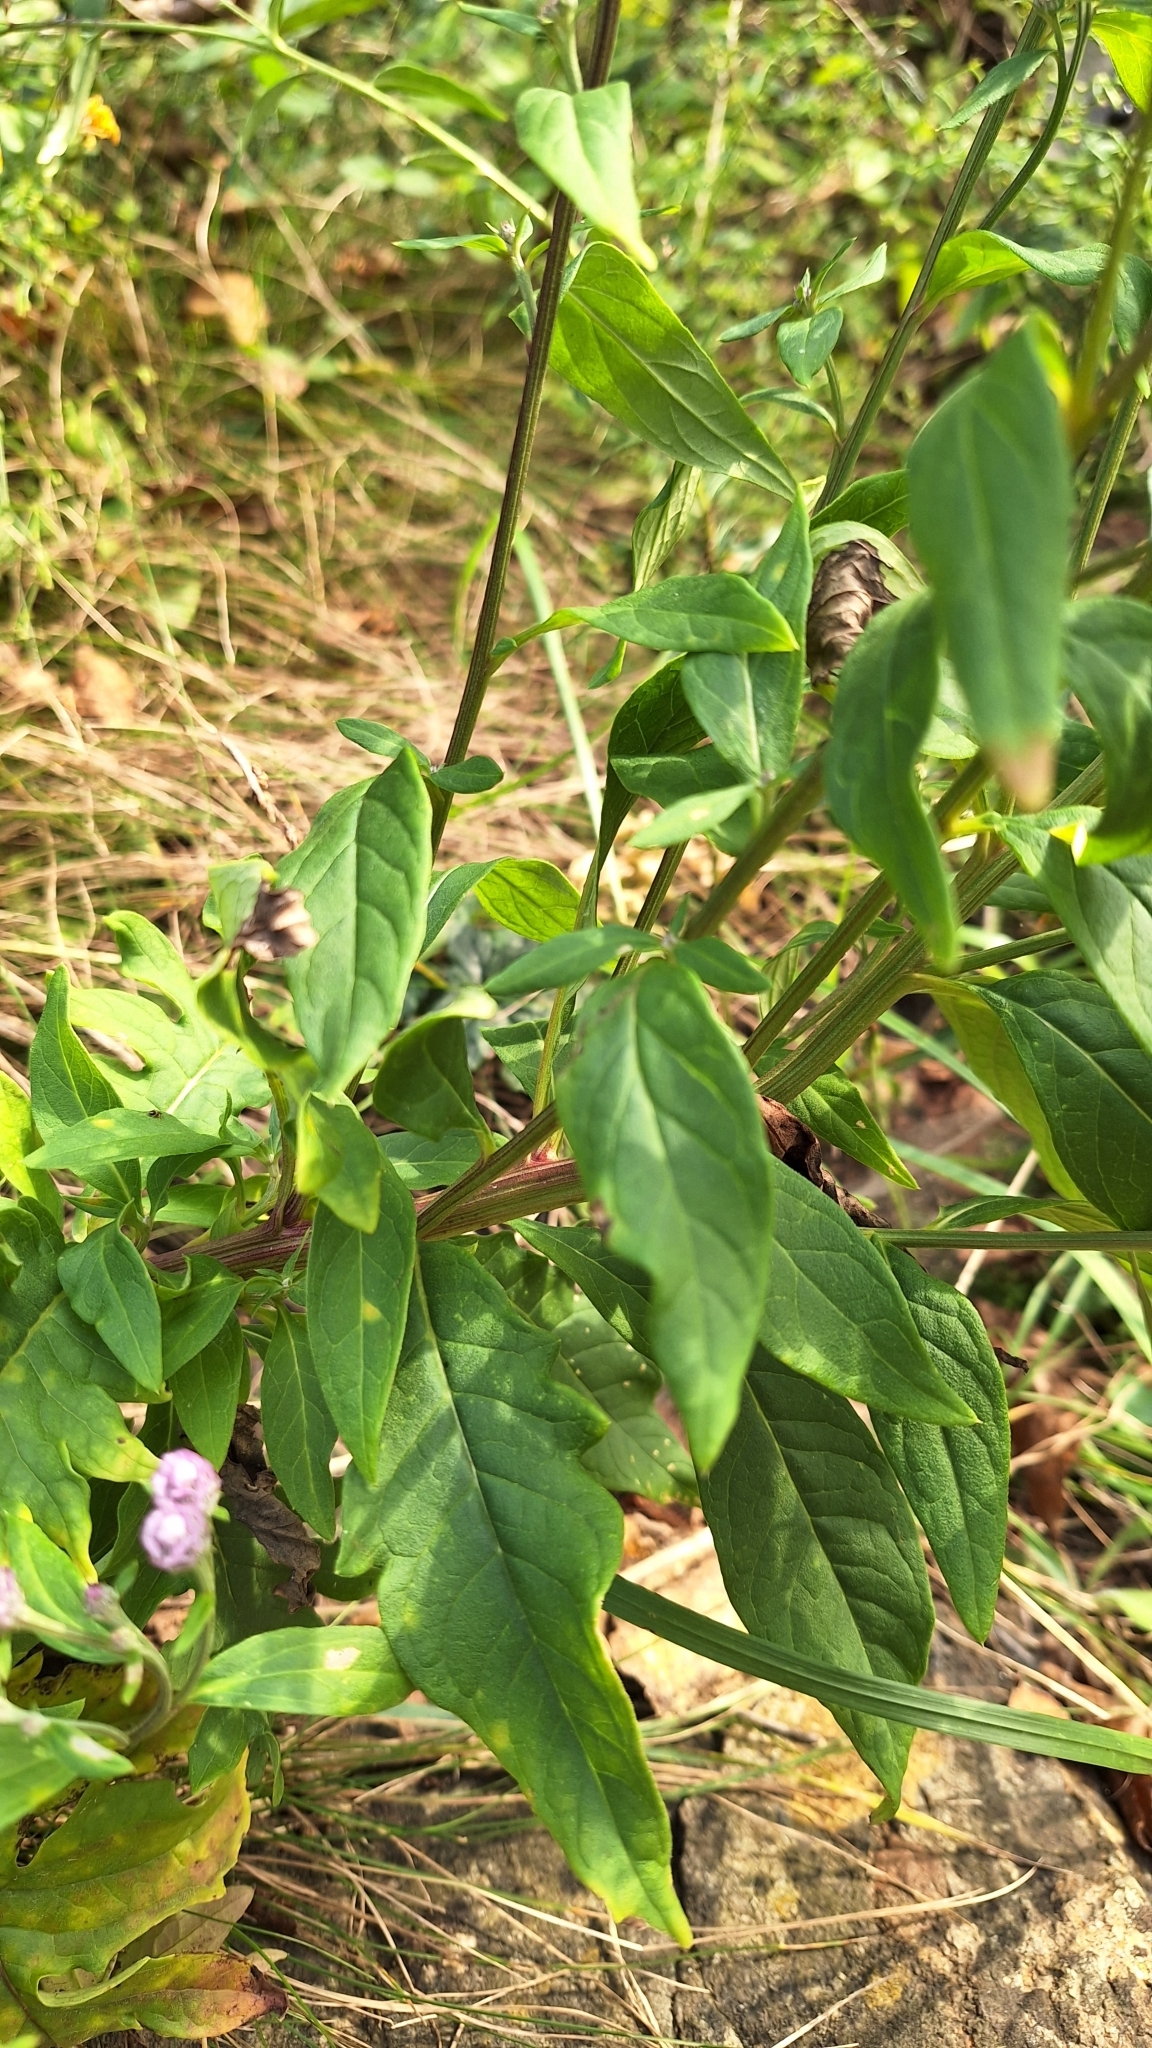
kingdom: Plantae
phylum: Tracheophyta
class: Magnoliopsida
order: Asterales
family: Asteraceae
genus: Saussurea
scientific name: Saussurea pulchella
